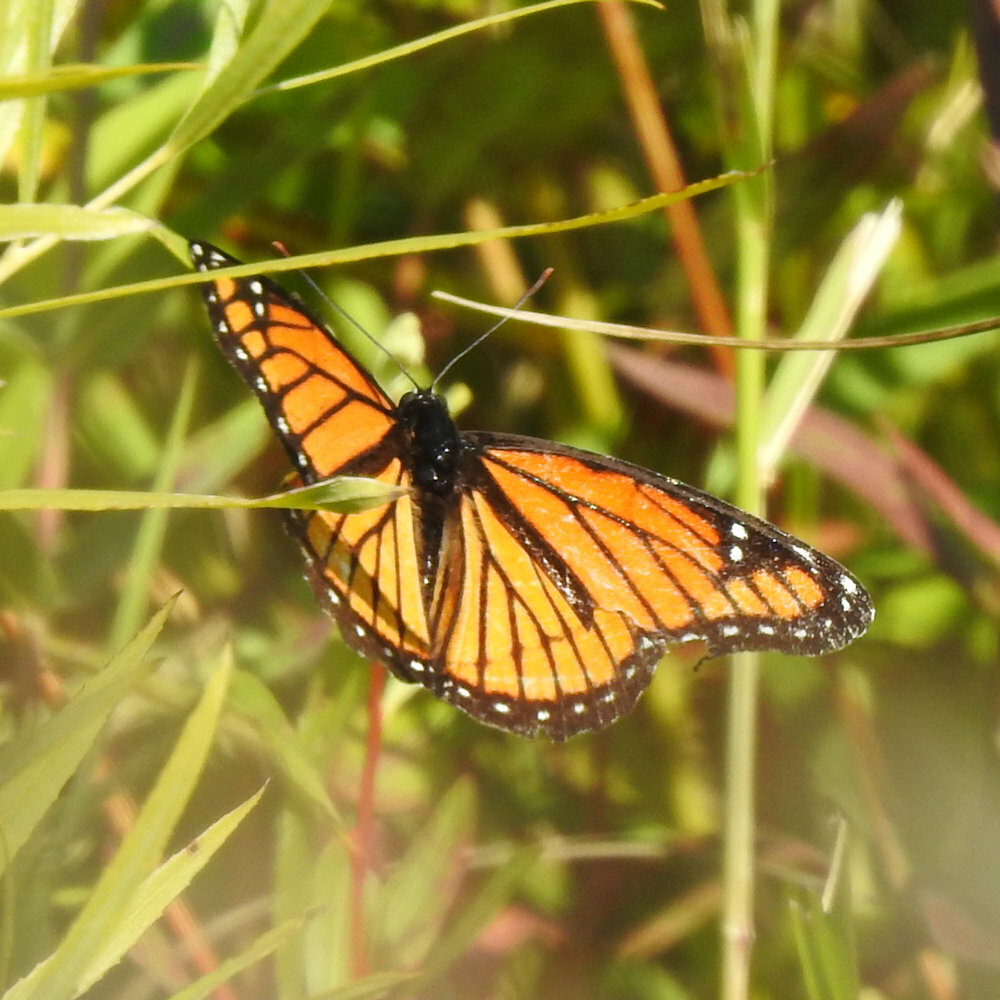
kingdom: Animalia
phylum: Arthropoda
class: Insecta
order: Lepidoptera
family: Nymphalidae
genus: Limenitis
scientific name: Limenitis archippus
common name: Viceroy
